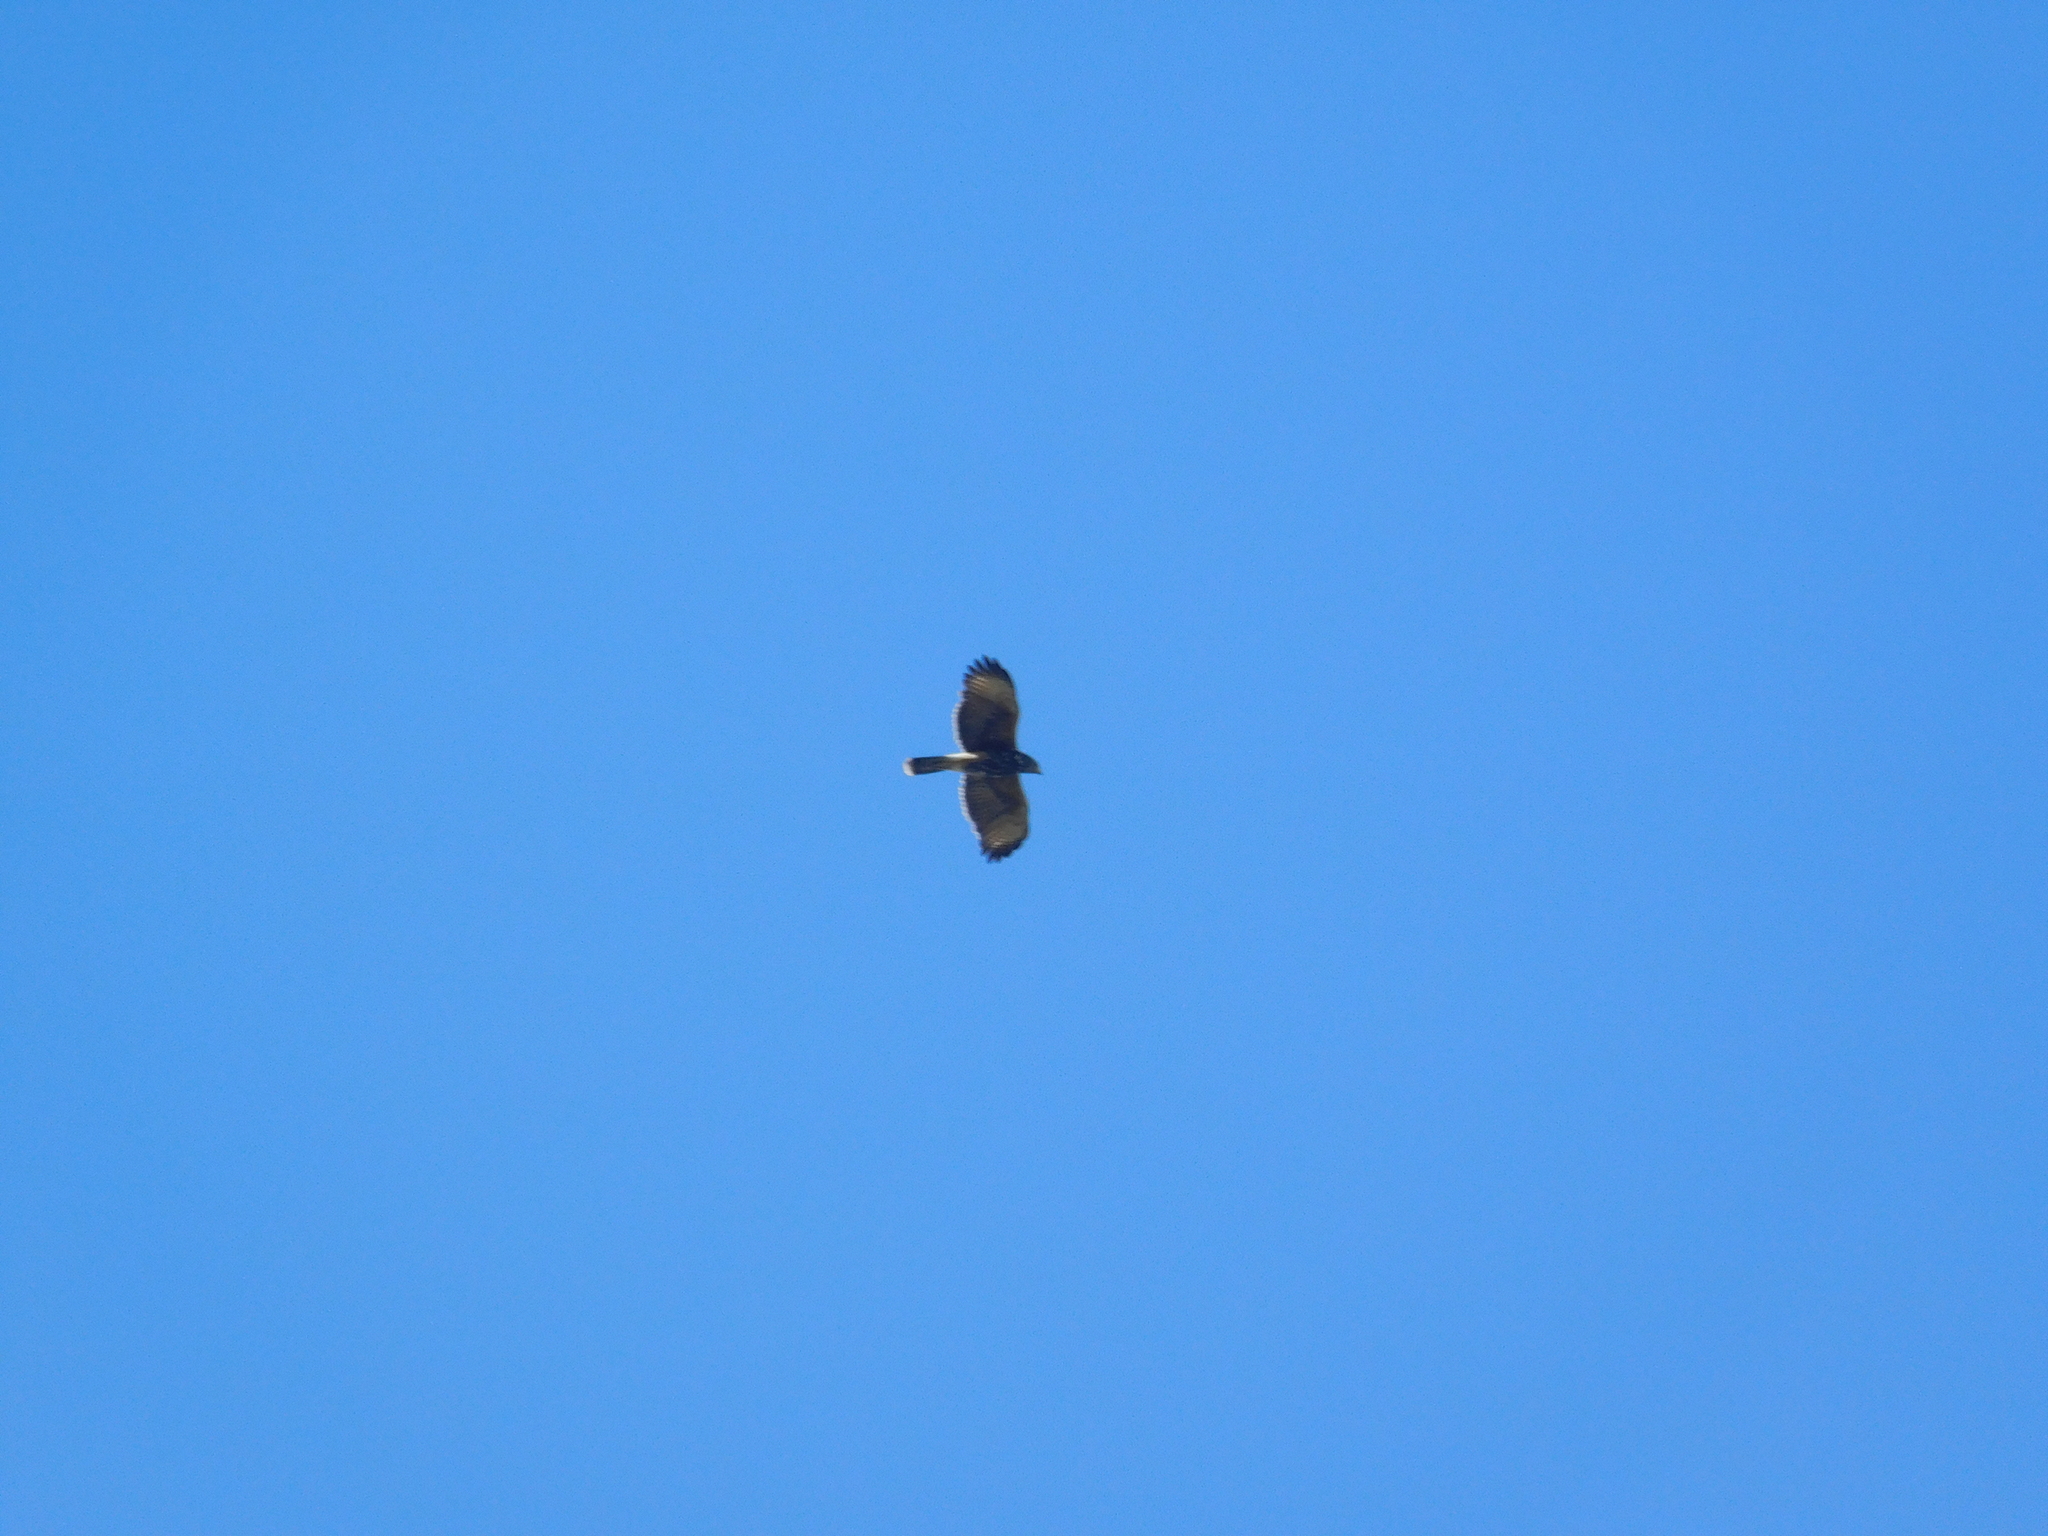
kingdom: Animalia
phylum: Chordata
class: Aves
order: Accipitriformes
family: Accipitridae
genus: Parabuteo
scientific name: Parabuteo unicinctus
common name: Harris's hawk
